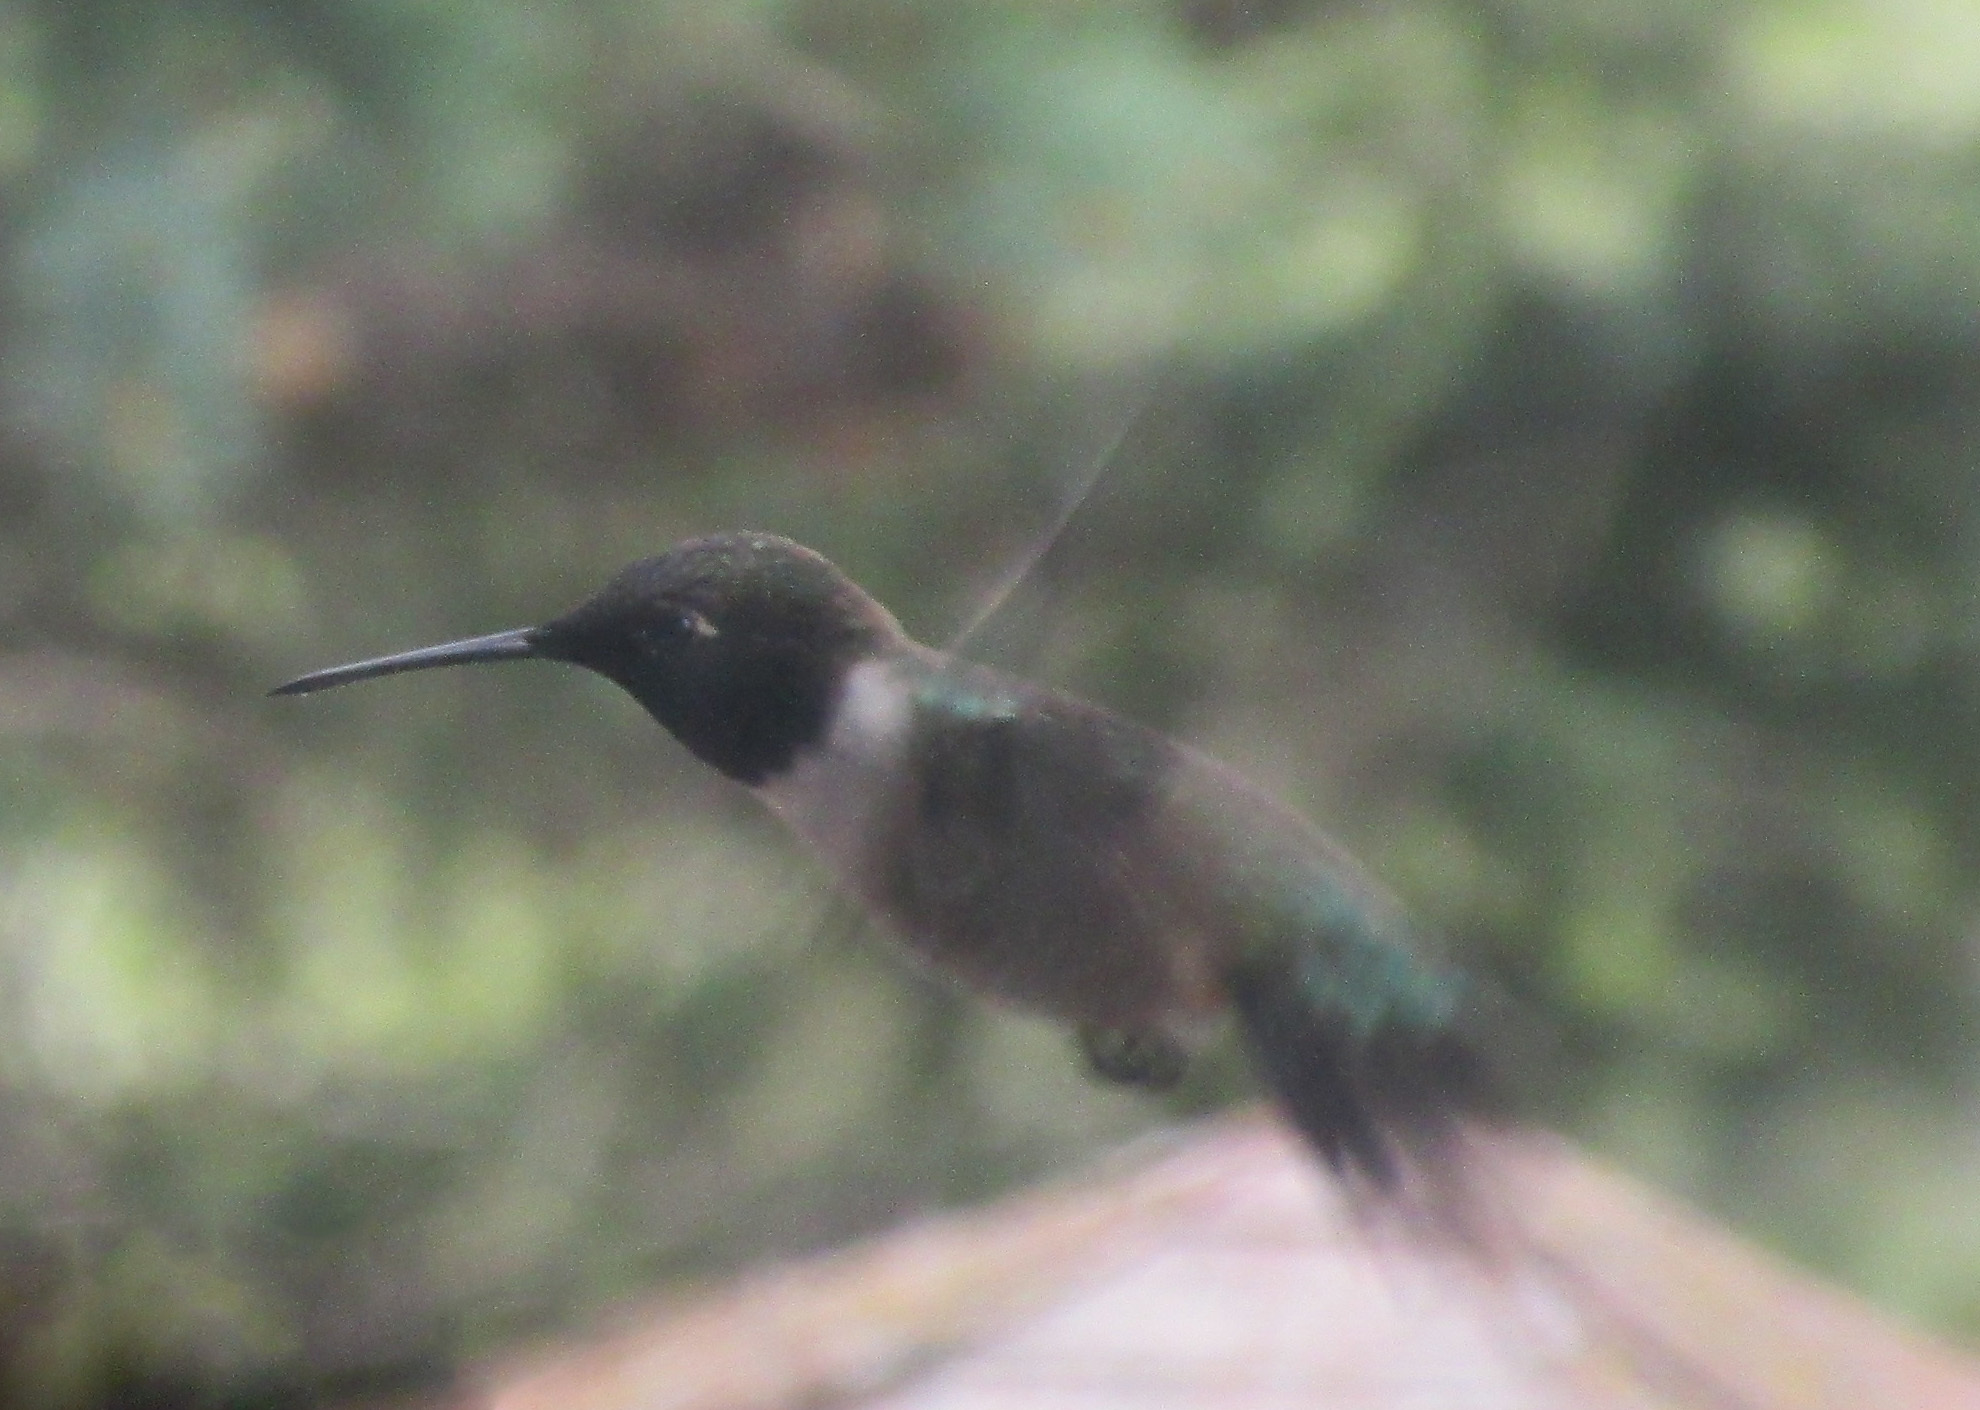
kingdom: Animalia
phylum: Chordata
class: Aves
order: Apodiformes
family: Trochilidae
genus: Archilochus
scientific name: Archilochus alexandri
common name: Black-chinned hummingbird
